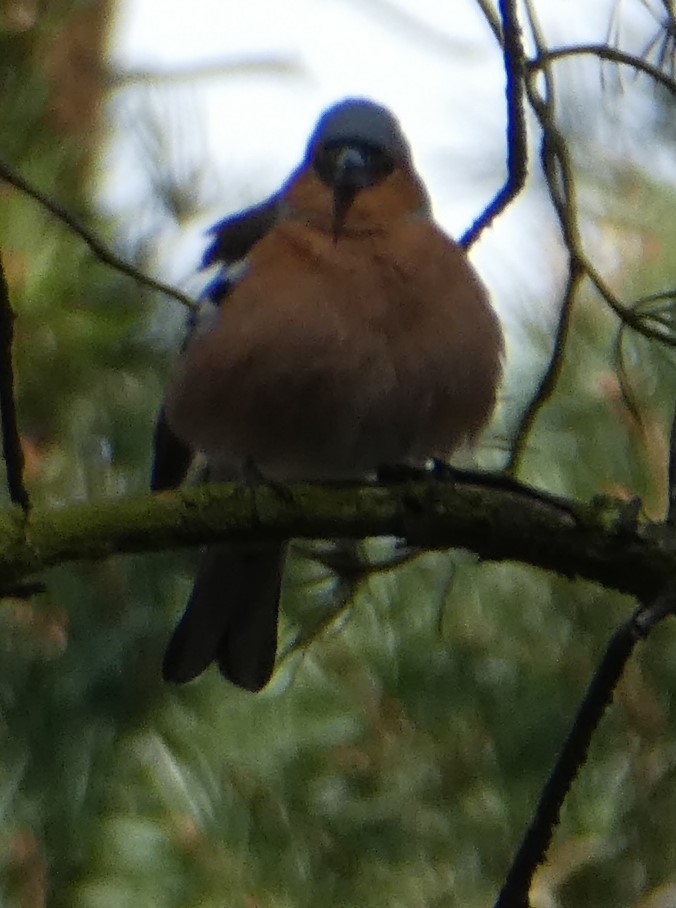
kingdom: Animalia
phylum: Chordata
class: Aves
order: Passeriformes
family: Fringillidae
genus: Fringilla
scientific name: Fringilla coelebs
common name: Common chaffinch
